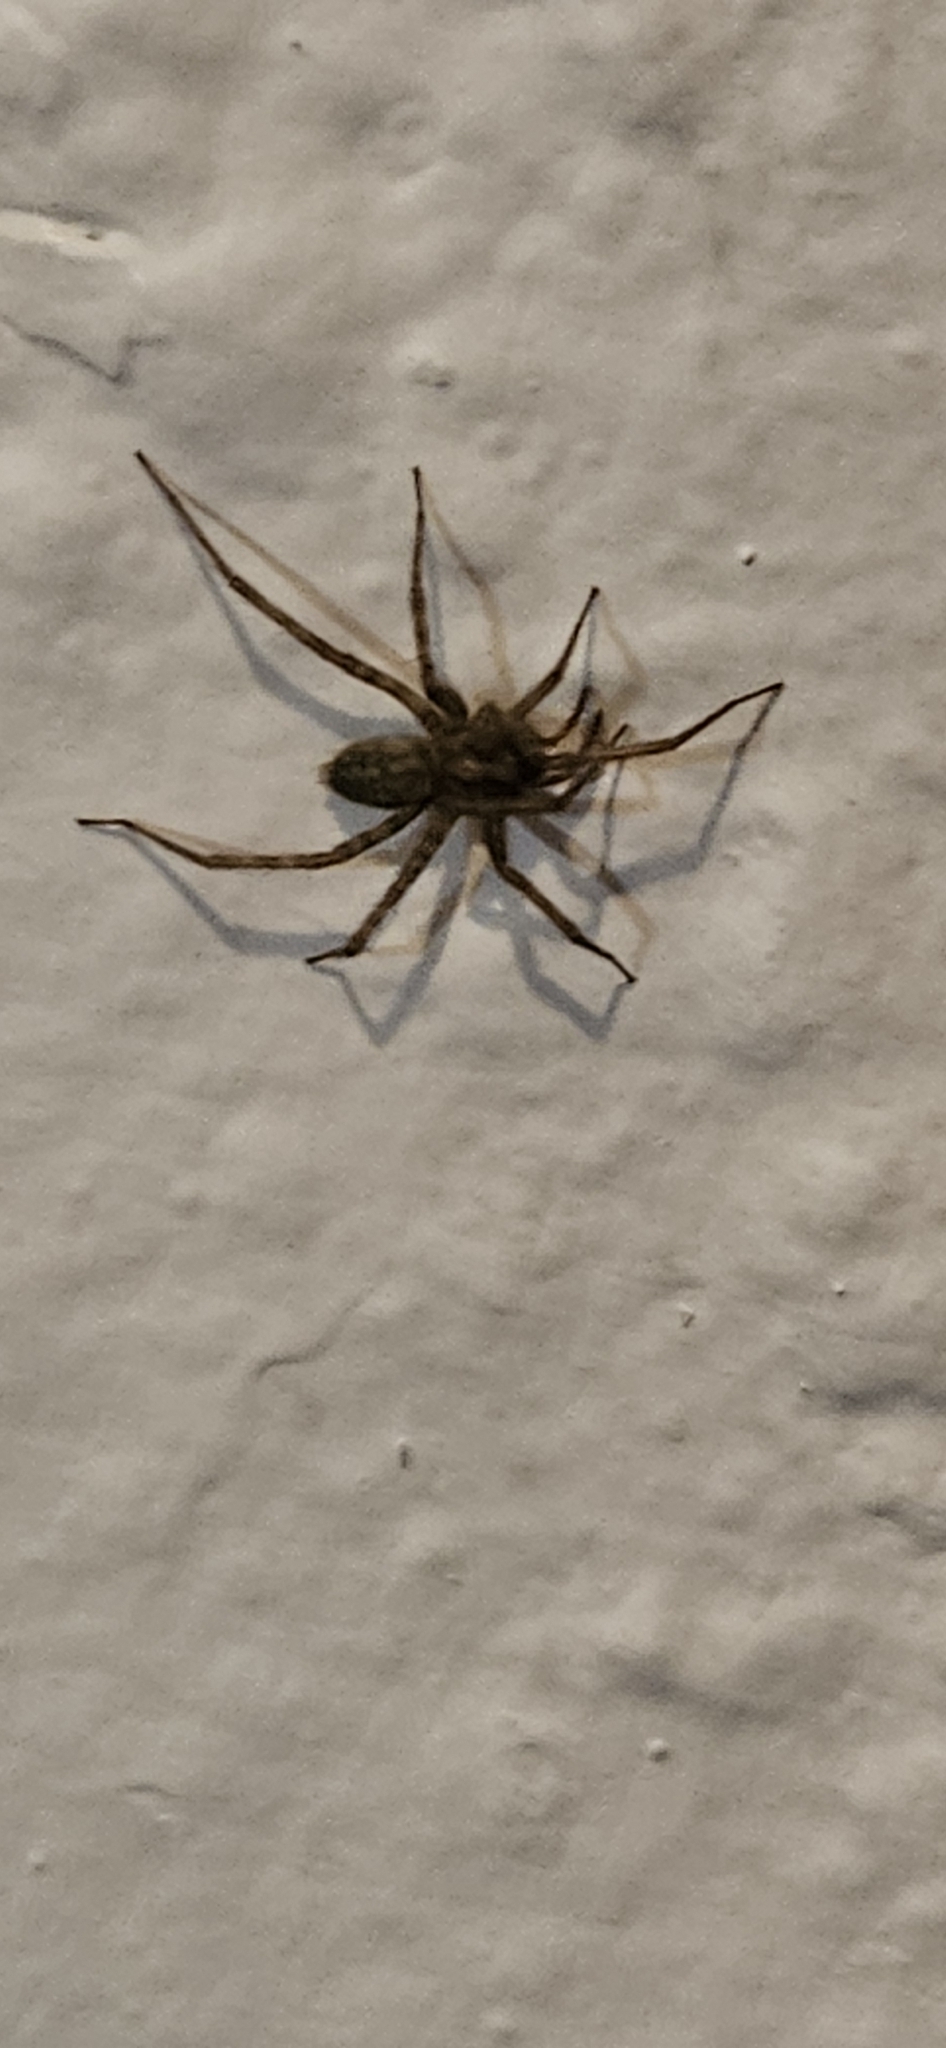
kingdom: Animalia
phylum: Arthropoda
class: Arachnida
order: Araneae
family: Agelenidae
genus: Tegenaria
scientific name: Tegenaria domestica
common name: Barn funnel weaver
